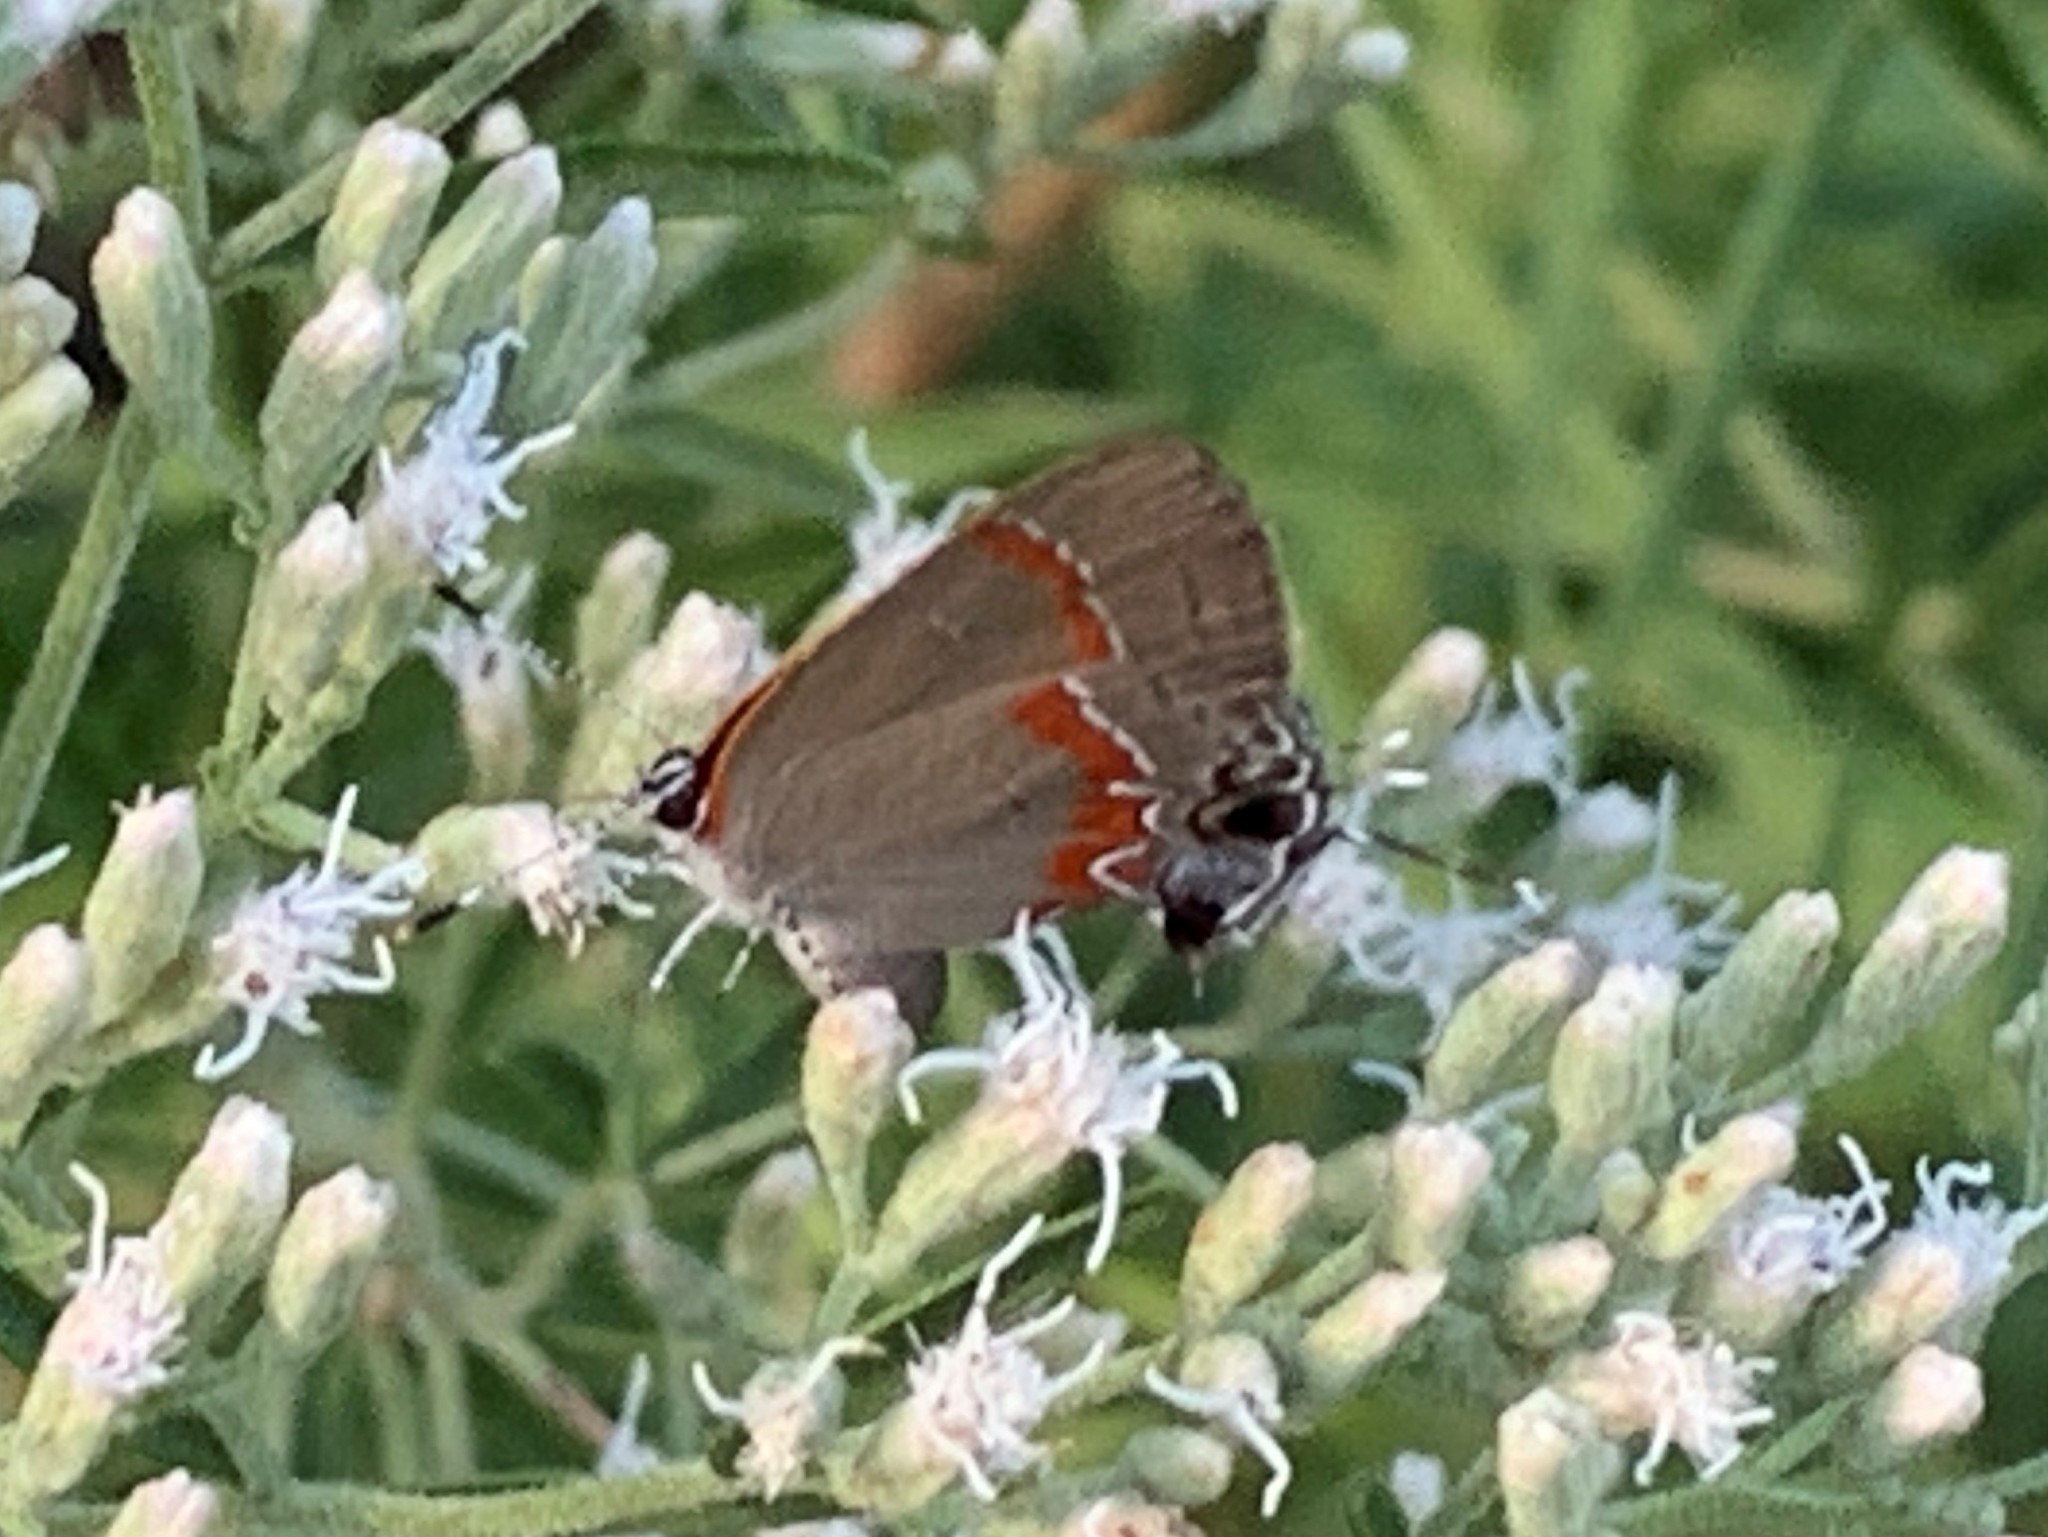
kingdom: Animalia
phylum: Arthropoda
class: Insecta
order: Lepidoptera
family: Lycaenidae
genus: Calycopis
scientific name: Calycopis cecrops
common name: Red-banded hairstreak
